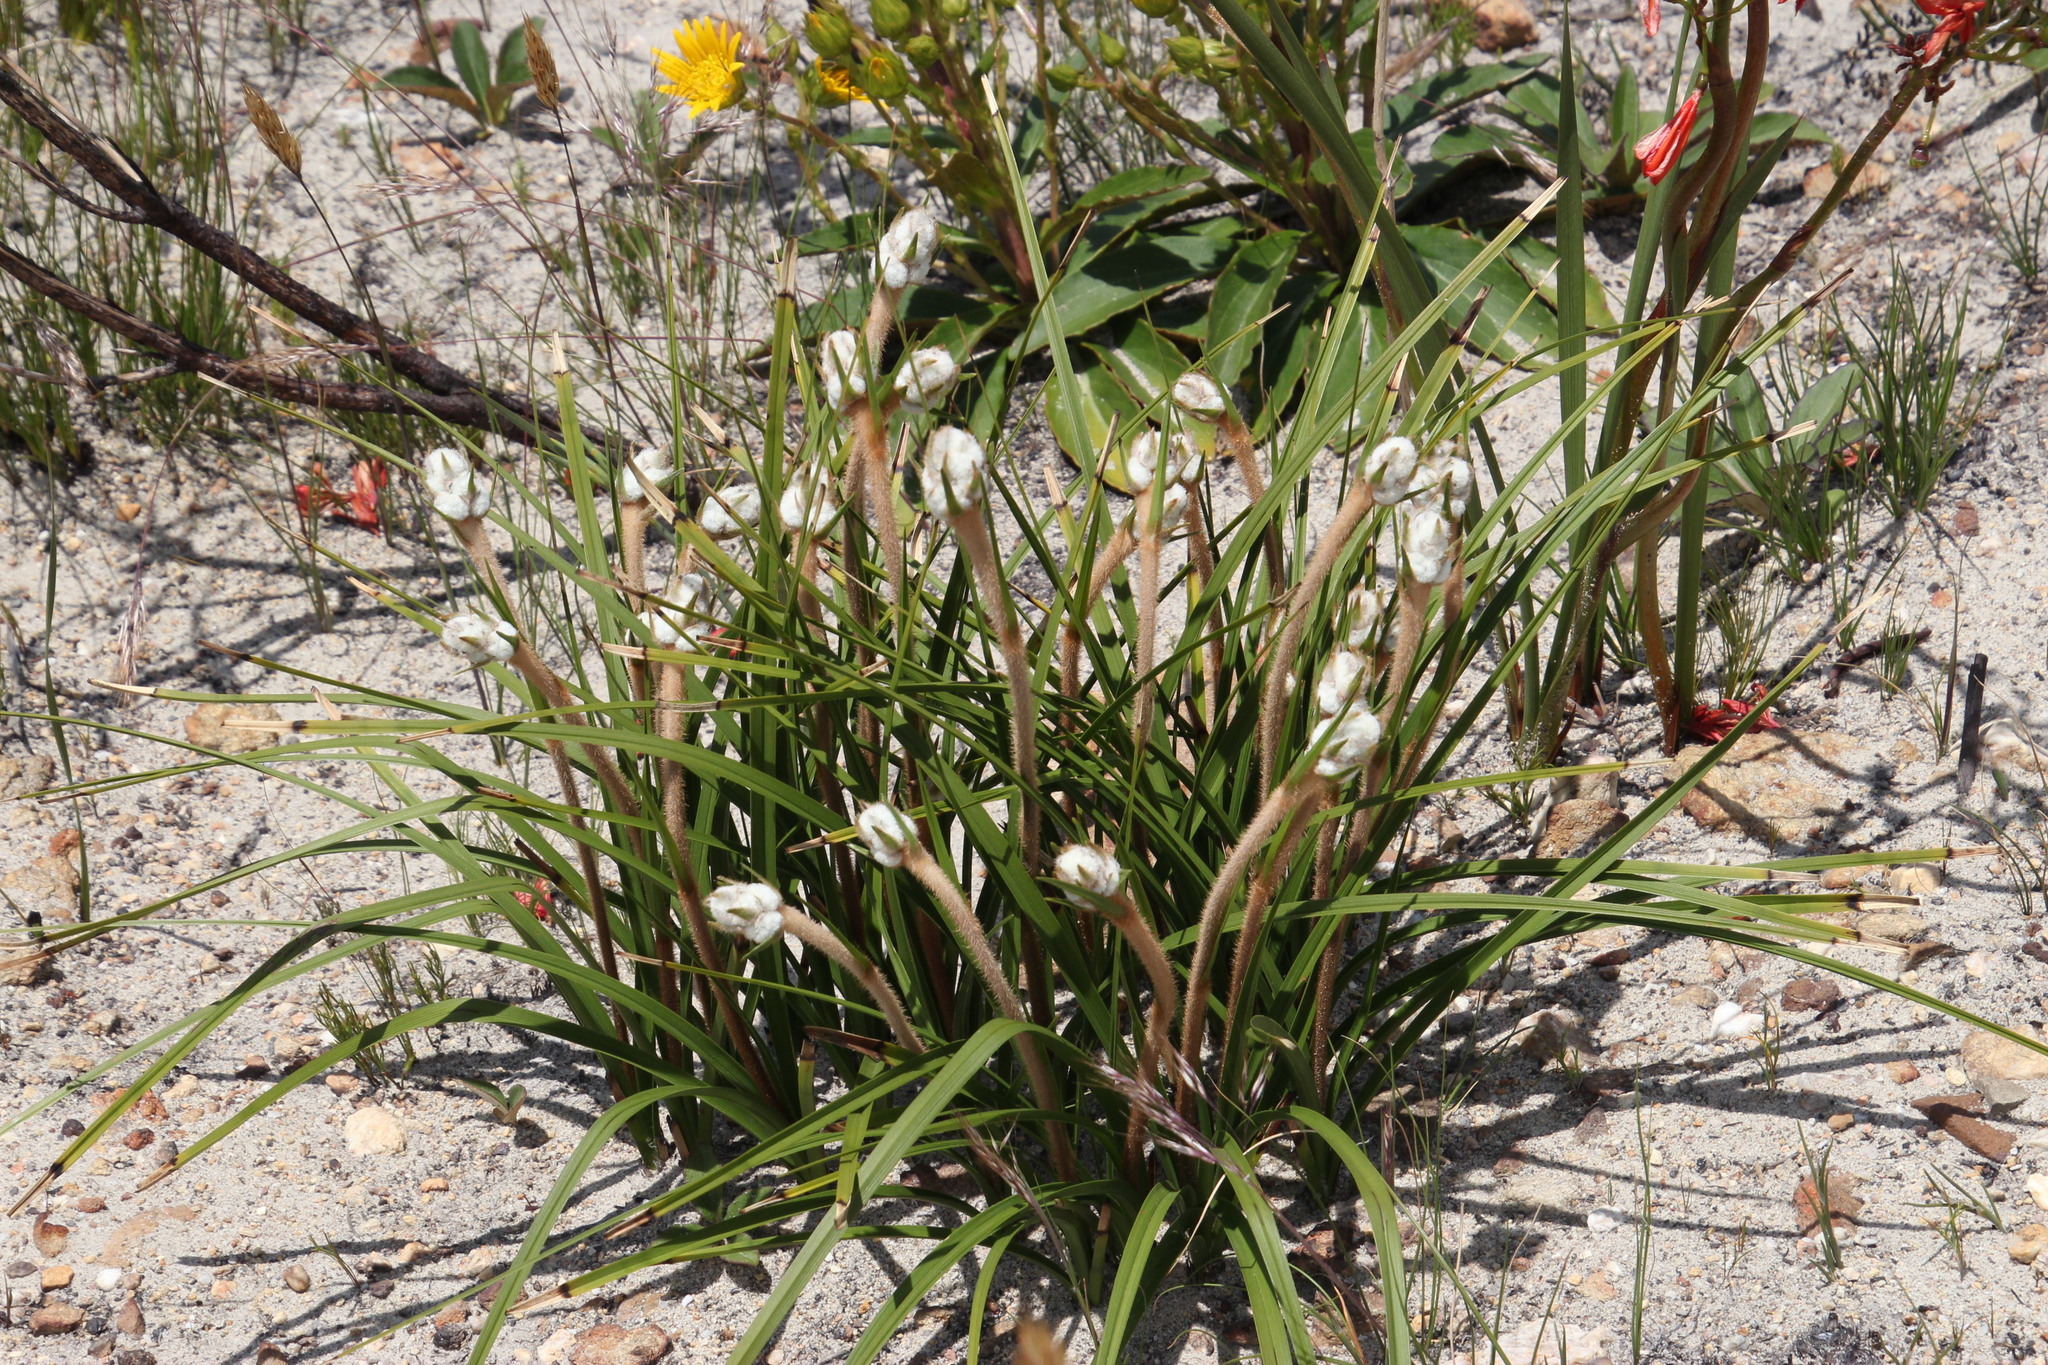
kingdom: Plantae
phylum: Tracheophyta
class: Liliopsida
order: Asparagales
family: Lanariaceae
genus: Lanaria
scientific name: Lanaria lanata
